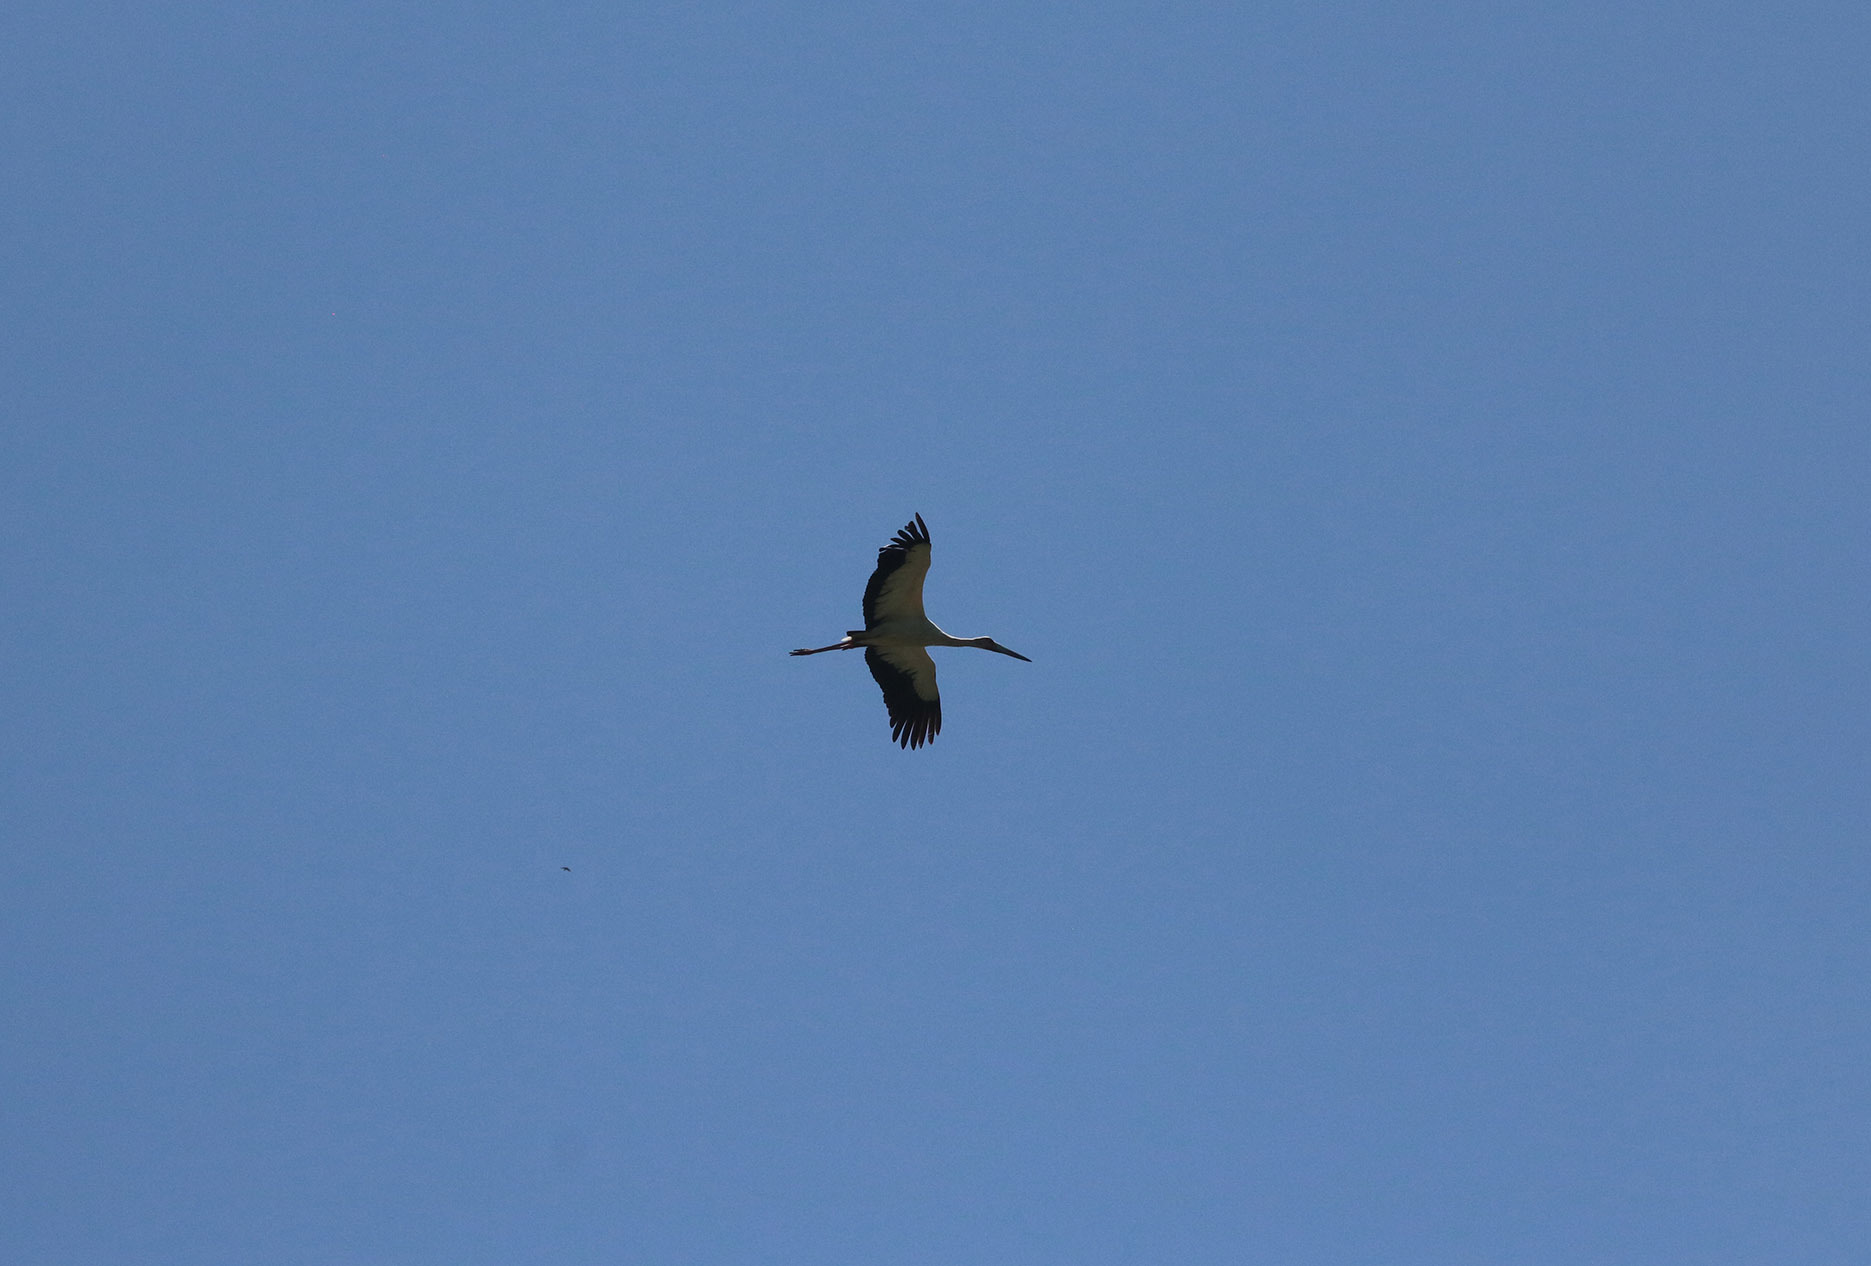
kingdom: Animalia
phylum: Chordata
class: Aves
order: Ciconiiformes
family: Ciconiidae
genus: Ciconia
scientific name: Ciconia maguari
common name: Maguari stork
